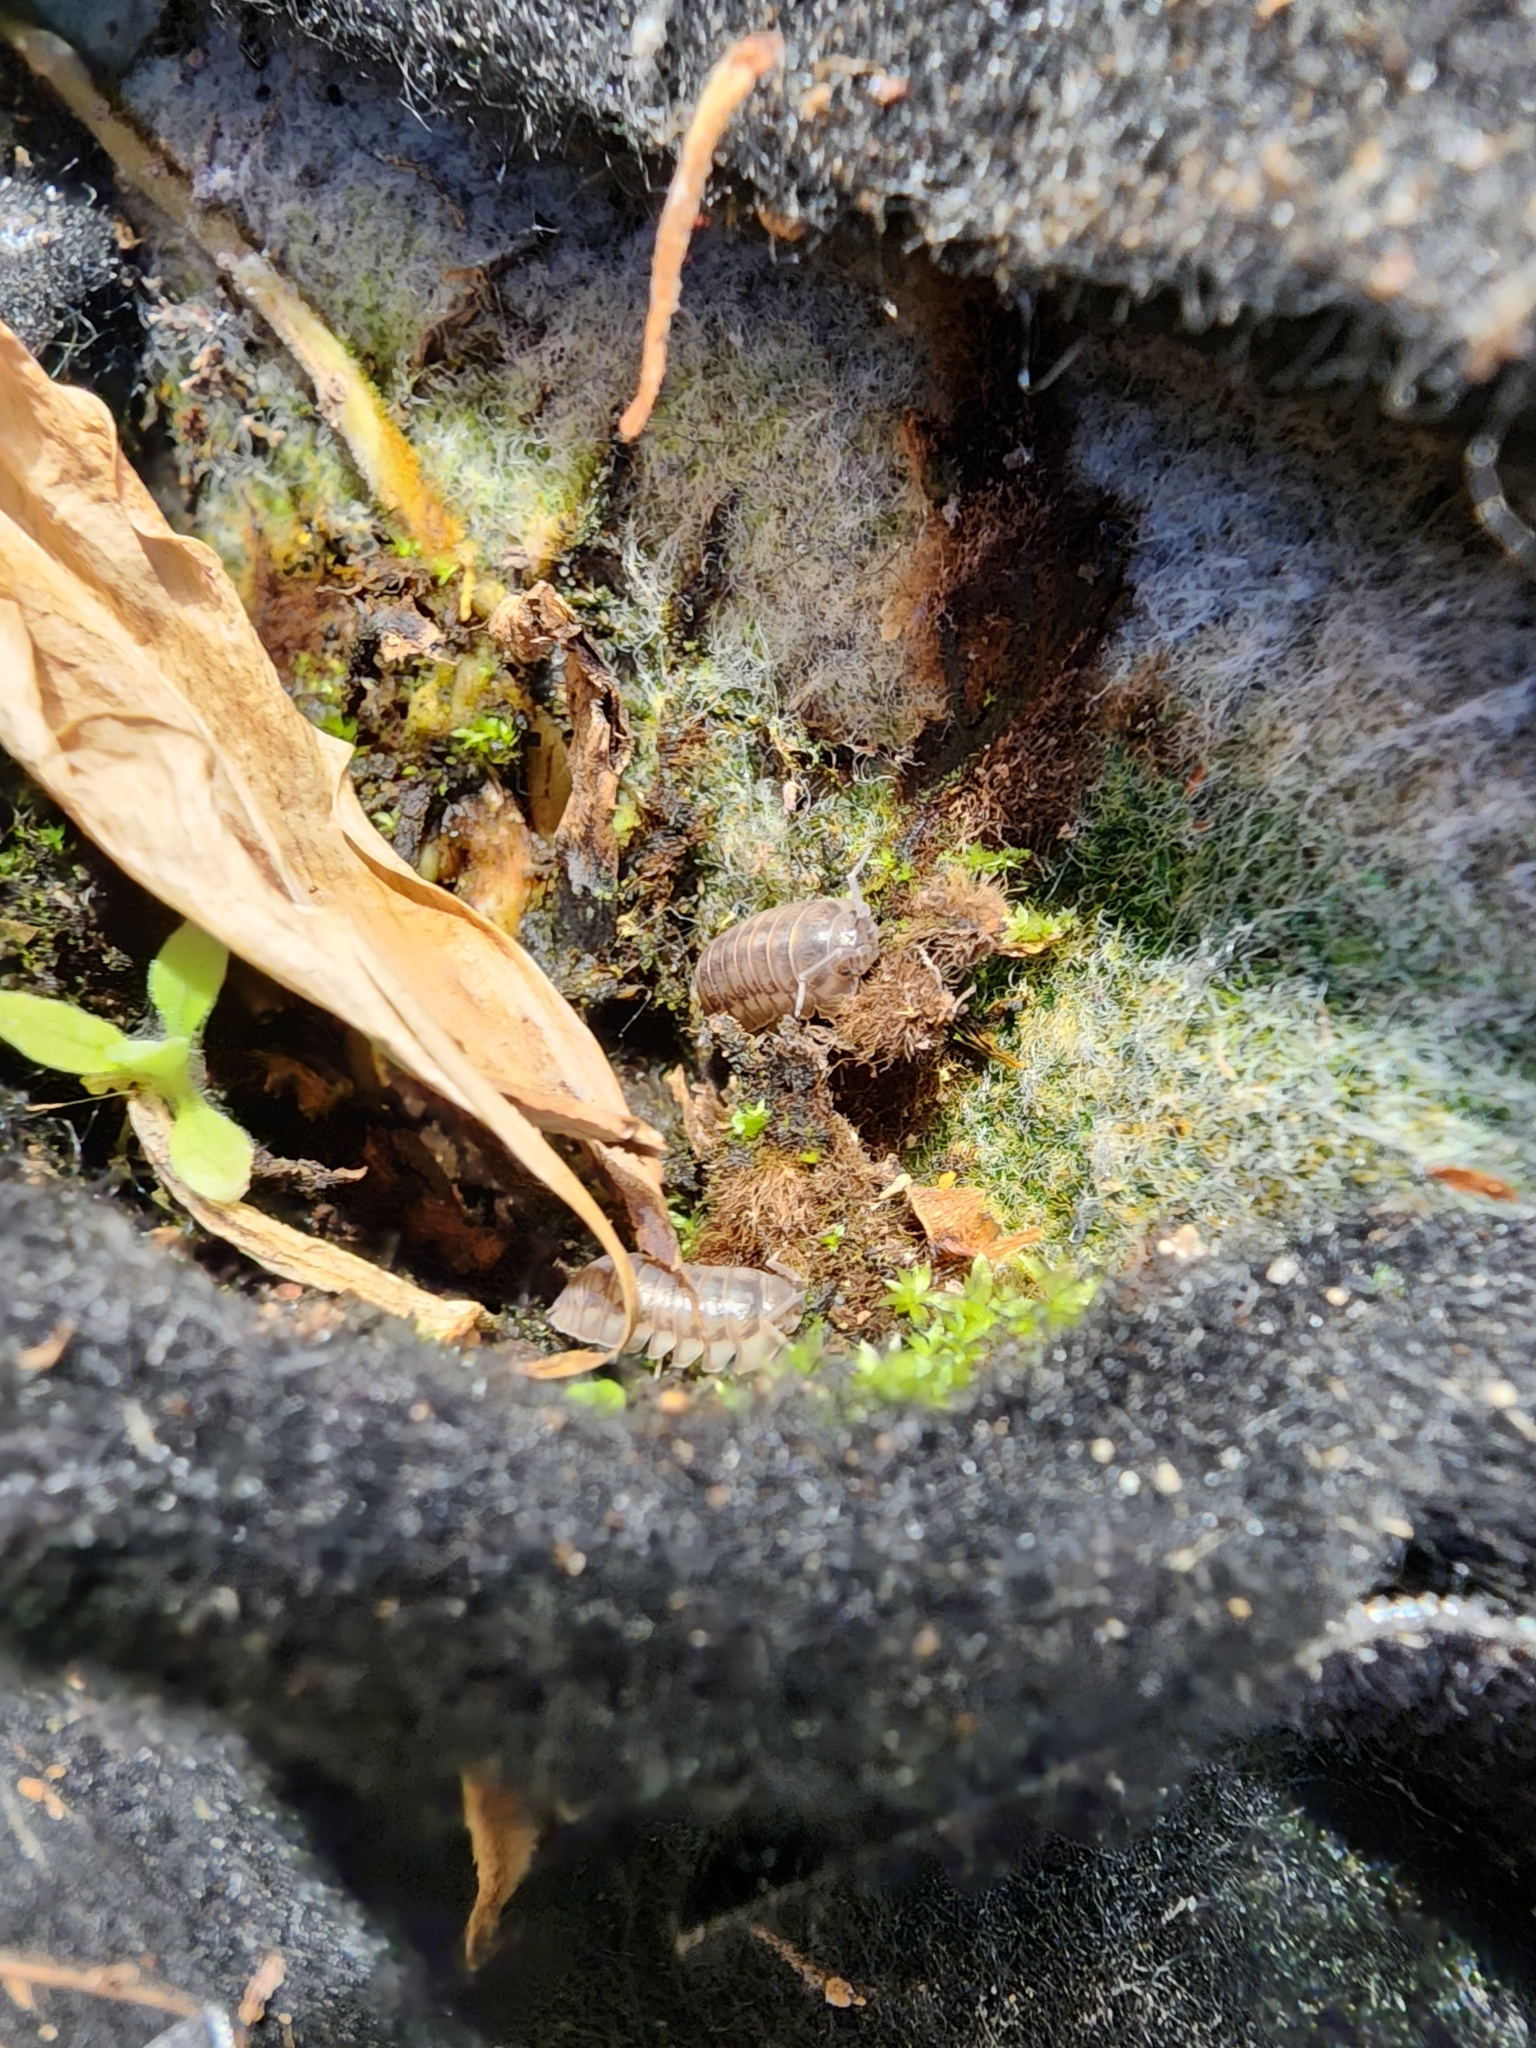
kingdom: Animalia
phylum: Arthropoda
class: Malacostraca
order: Isopoda
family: Armadillidiidae
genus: Armadillidium
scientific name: Armadillidium nasatum
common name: Isopod
